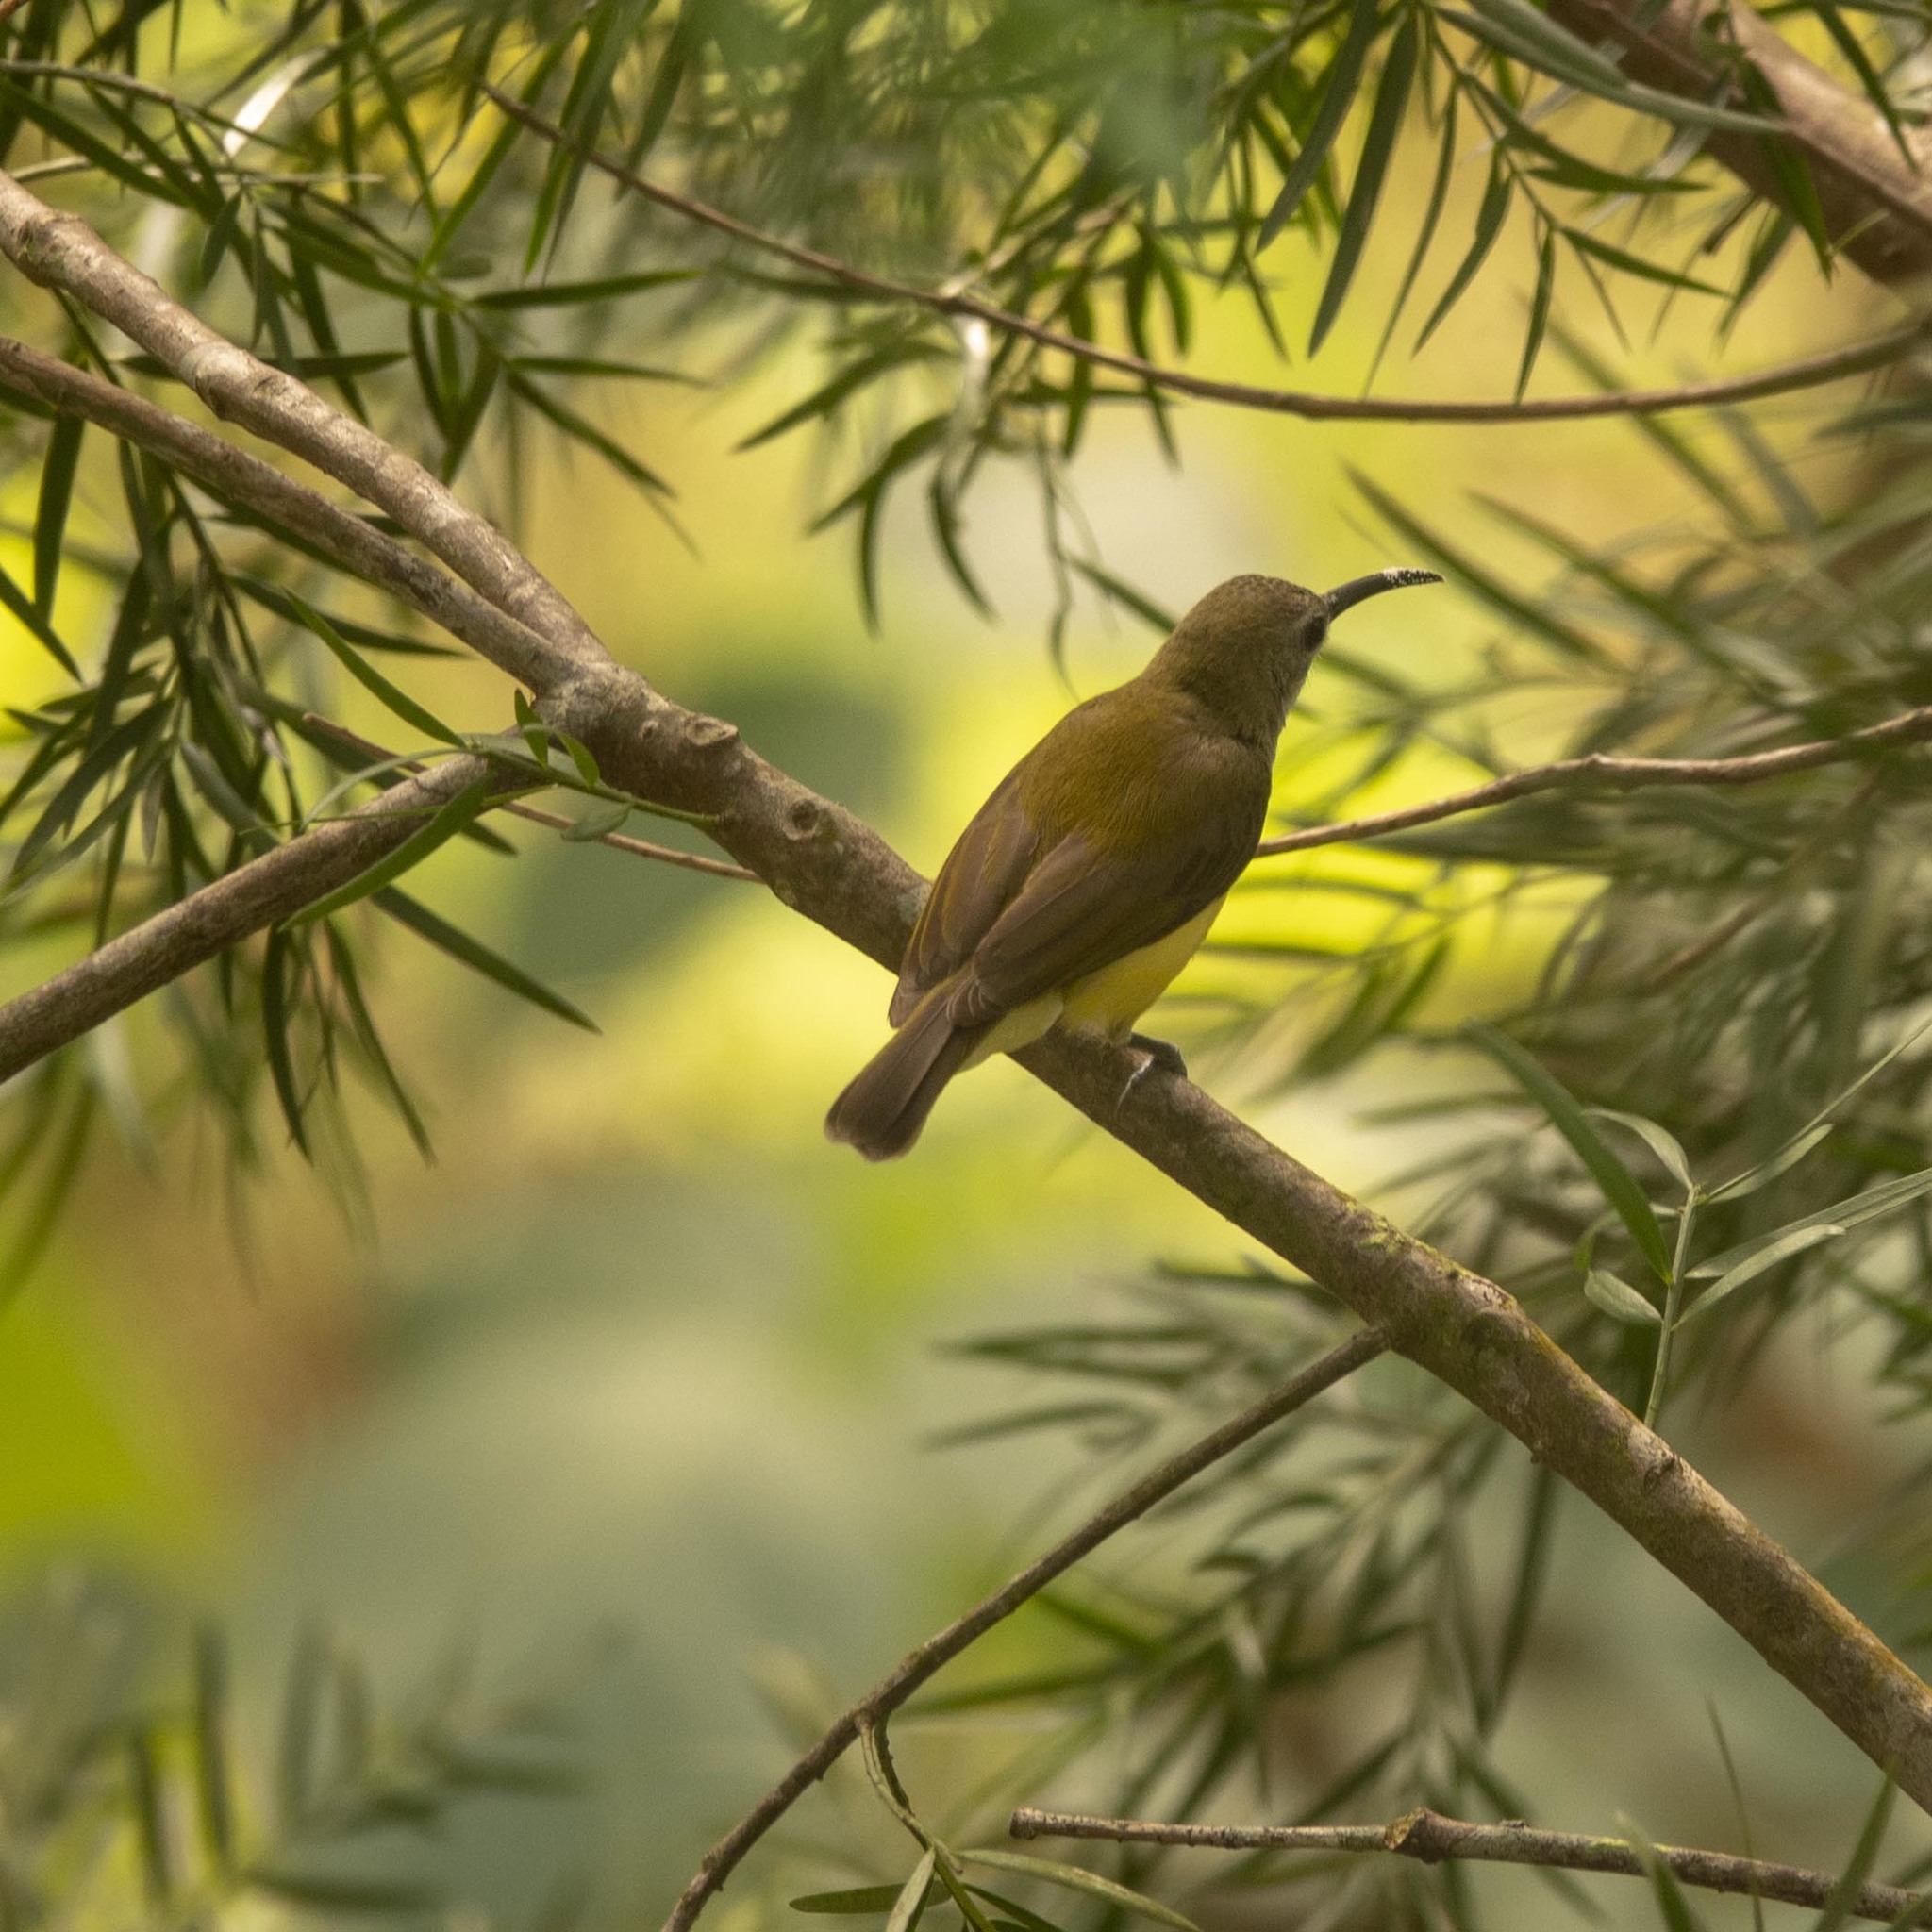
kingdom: Animalia
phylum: Chordata
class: Aves
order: Passeriformes
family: Nectariniidae
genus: Arachnothera
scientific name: Arachnothera longirostra
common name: Little spiderhunter
